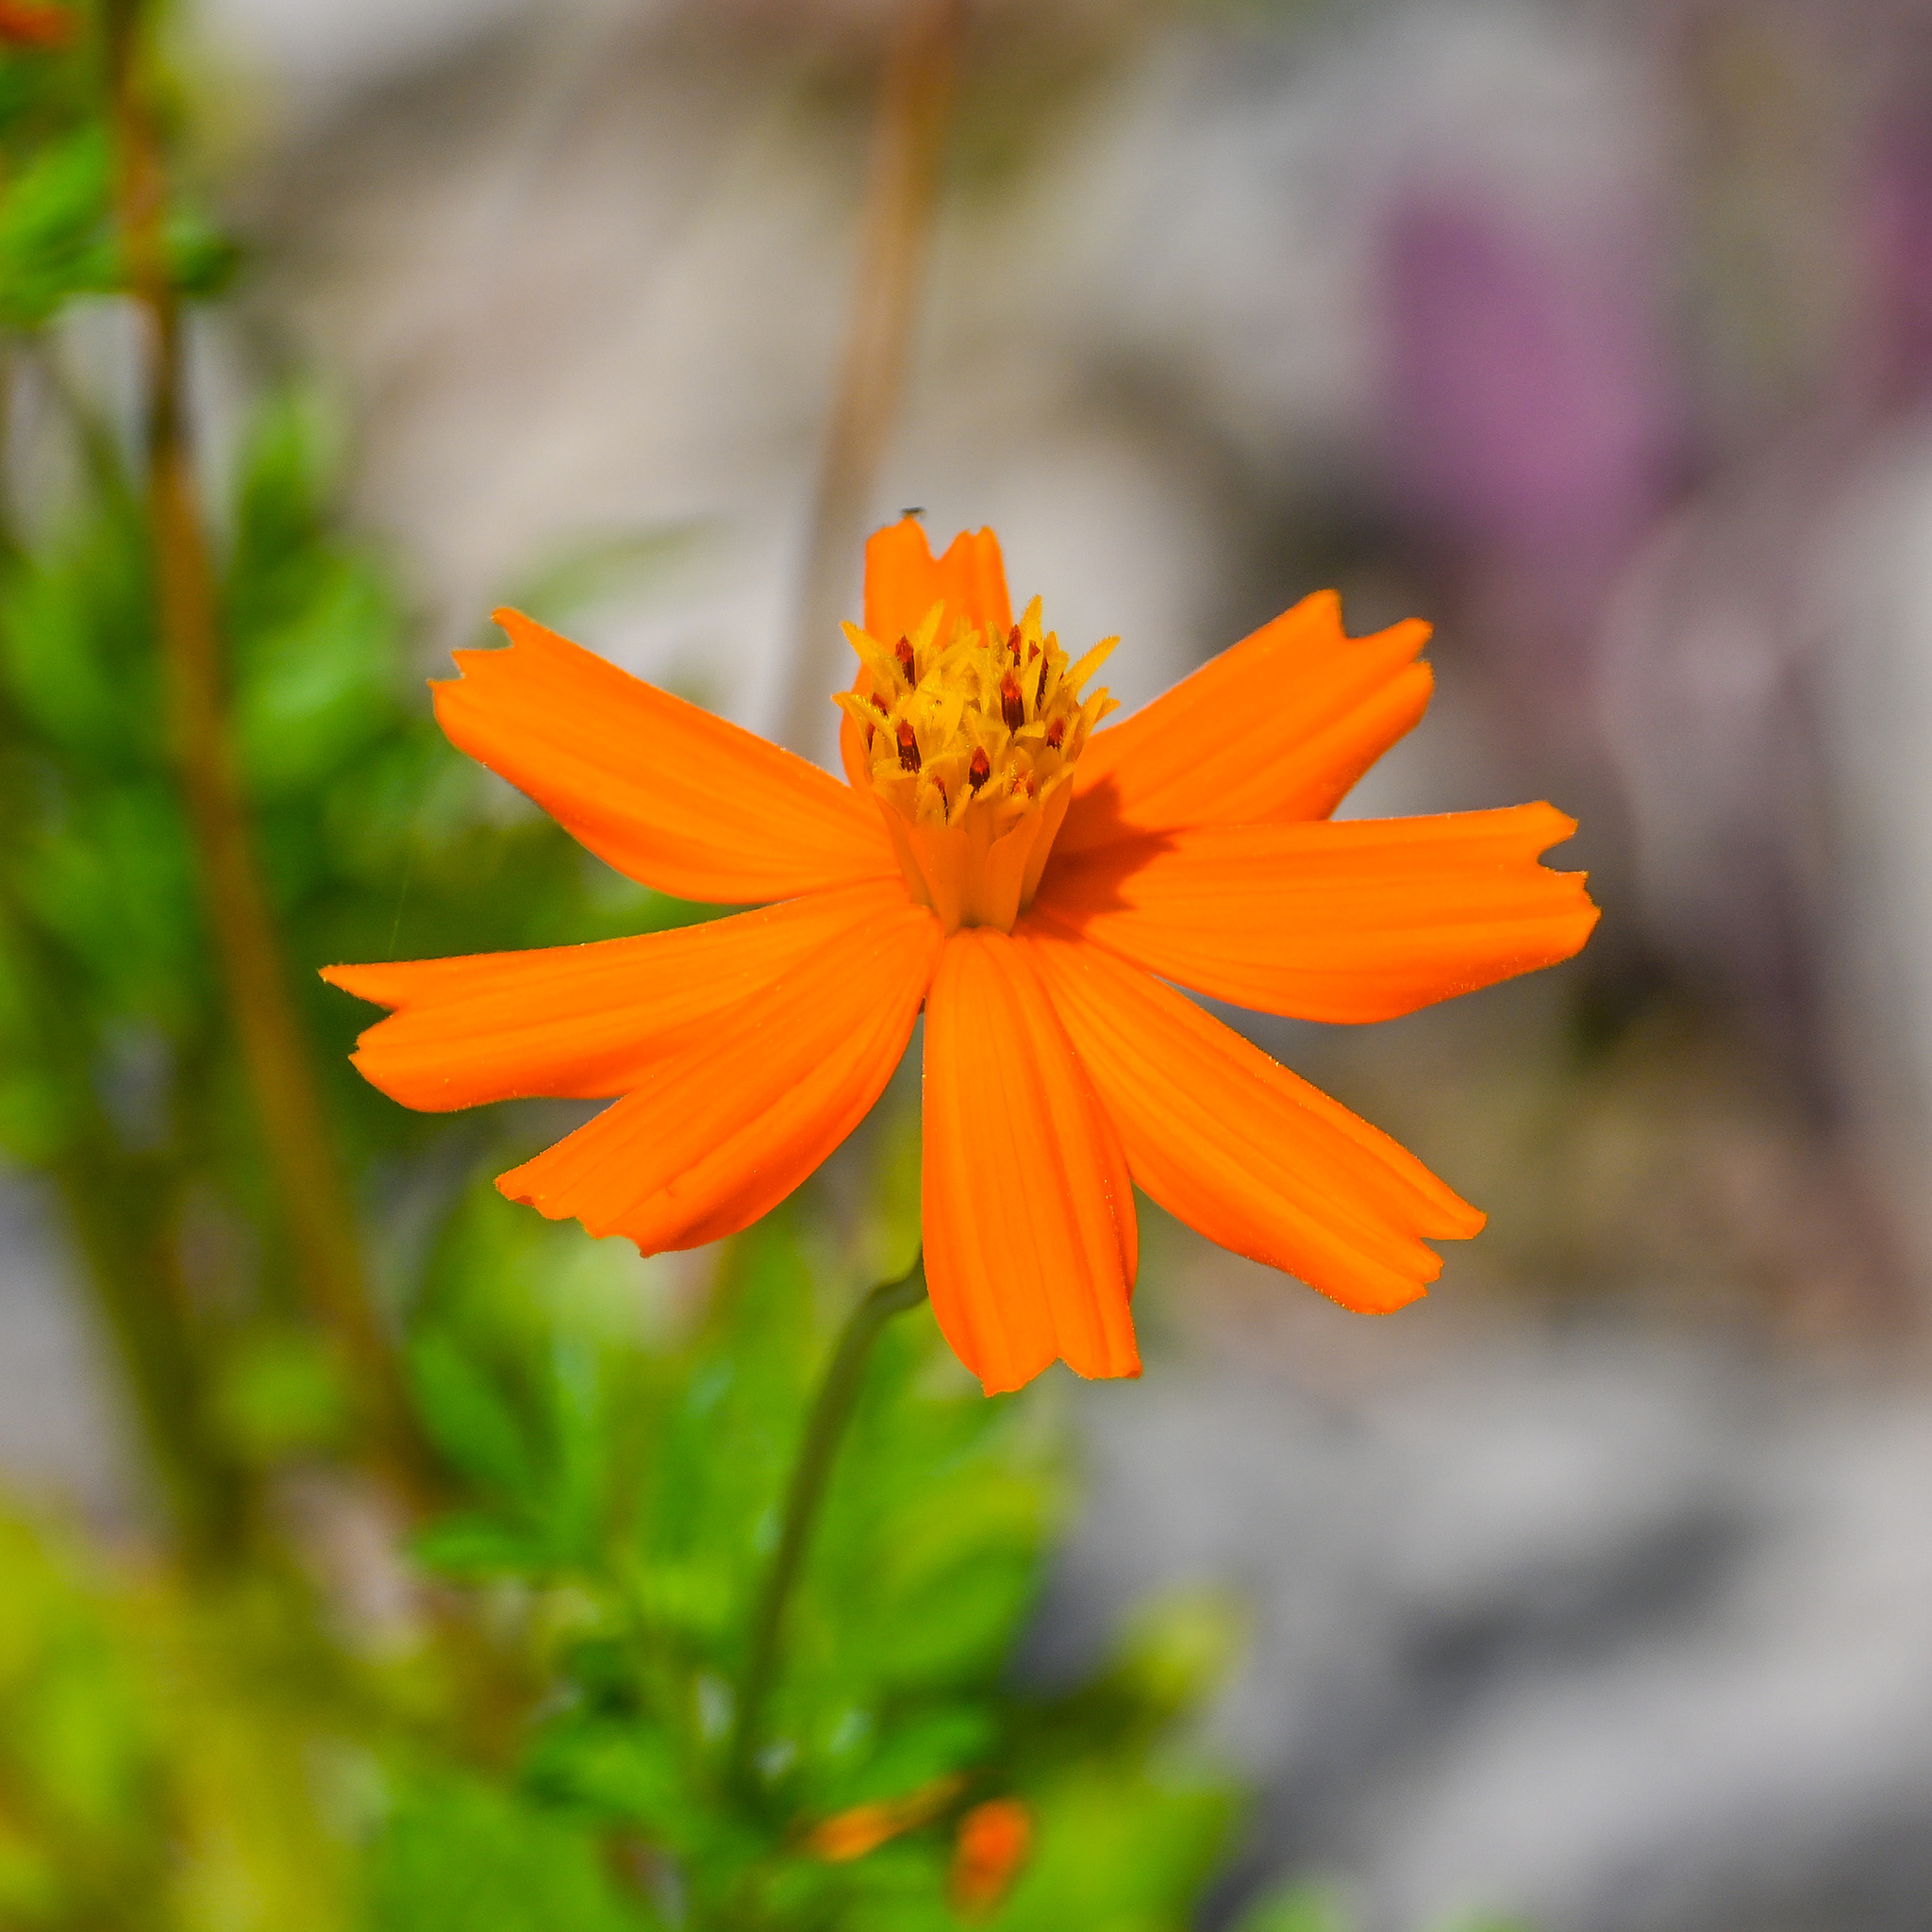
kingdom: Plantae
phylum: Tracheophyta
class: Magnoliopsida
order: Asterales
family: Asteraceae
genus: Cosmos
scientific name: Cosmos sulphureus
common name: Sulphur cosmos
